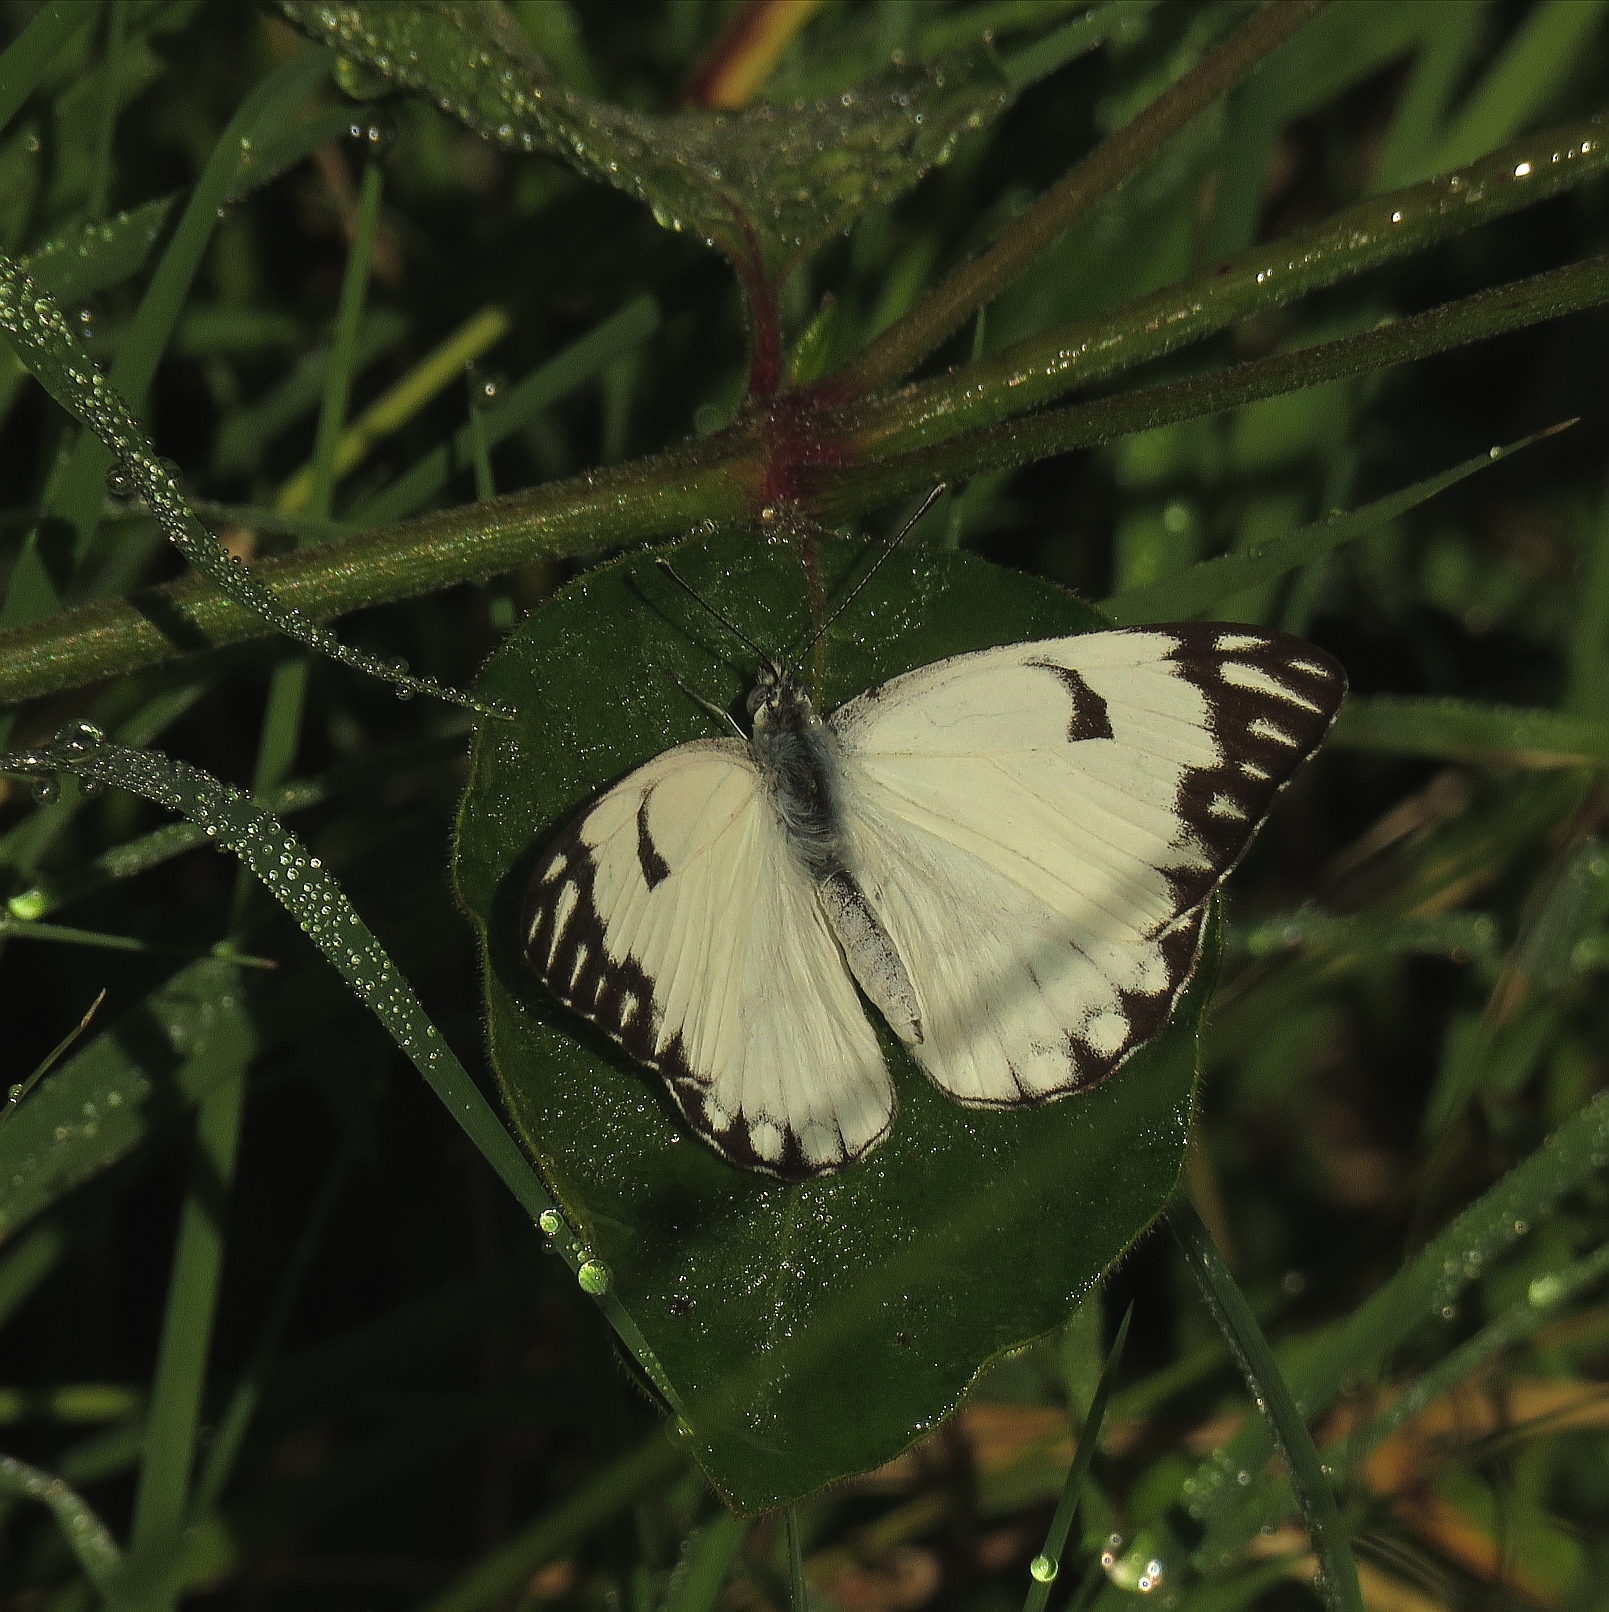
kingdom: Animalia
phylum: Arthropoda
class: Insecta
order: Lepidoptera
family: Pieridae
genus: Belenois
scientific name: Belenois aurota
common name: Brown-veined white
